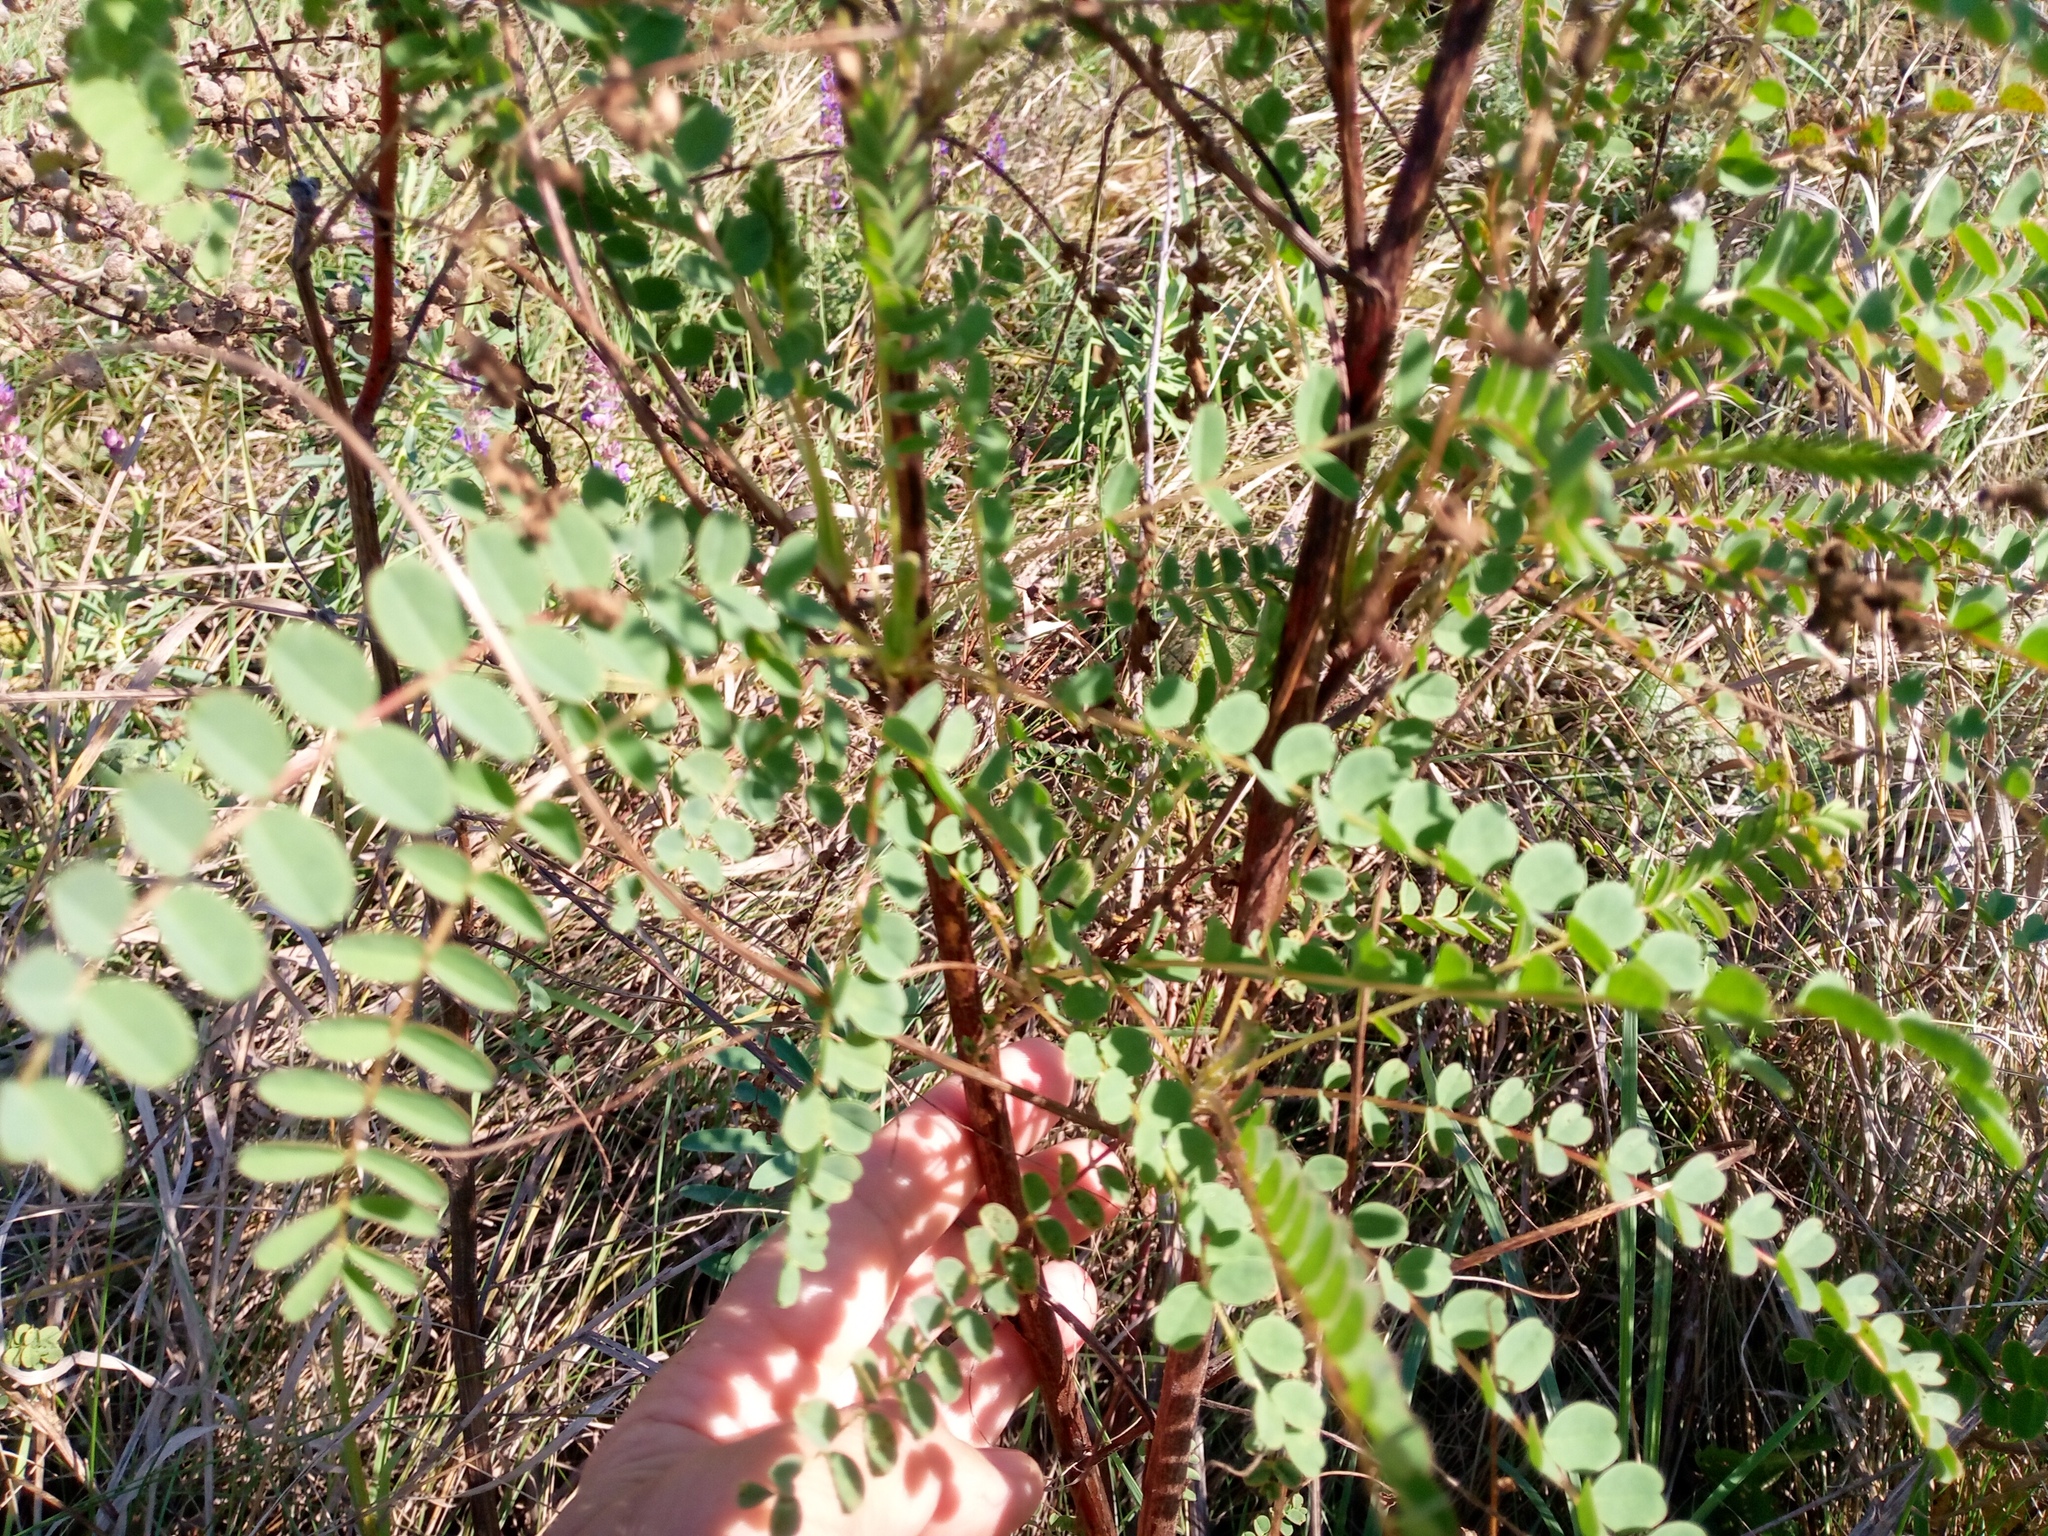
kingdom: Plantae
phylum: Tracheophyta
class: Magnoliopsida
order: Fabales
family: Fabaceae
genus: Astragalus
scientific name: Astragalus ponticus
